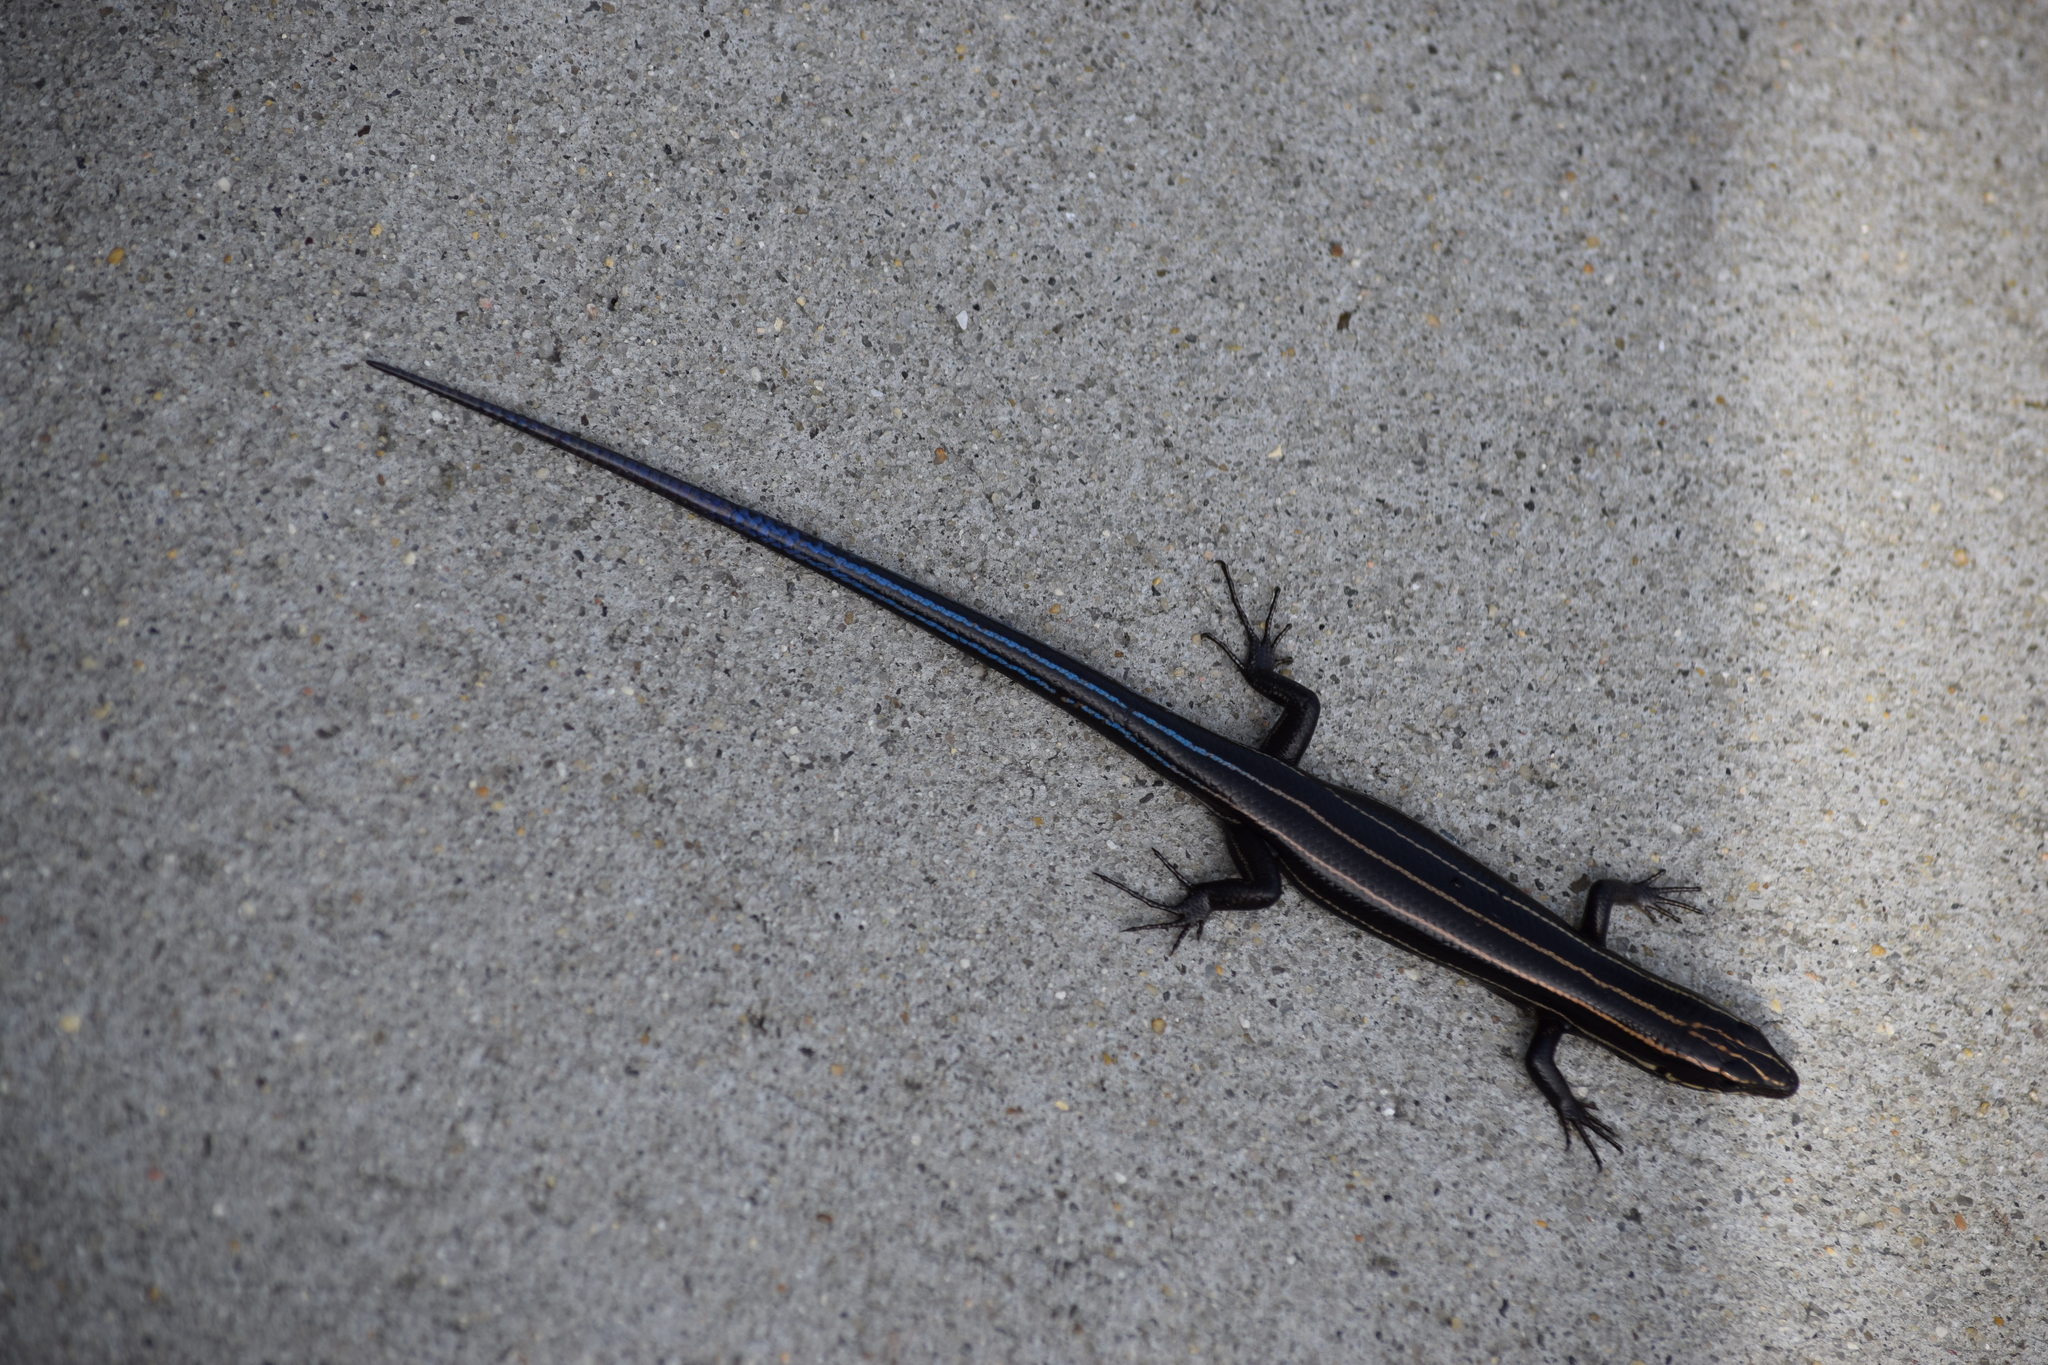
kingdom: Animalia
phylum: Chordata
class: Squamata
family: Scincidae
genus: Plestiodon
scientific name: Plestiodon fasciatus
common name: Five-lined skink
